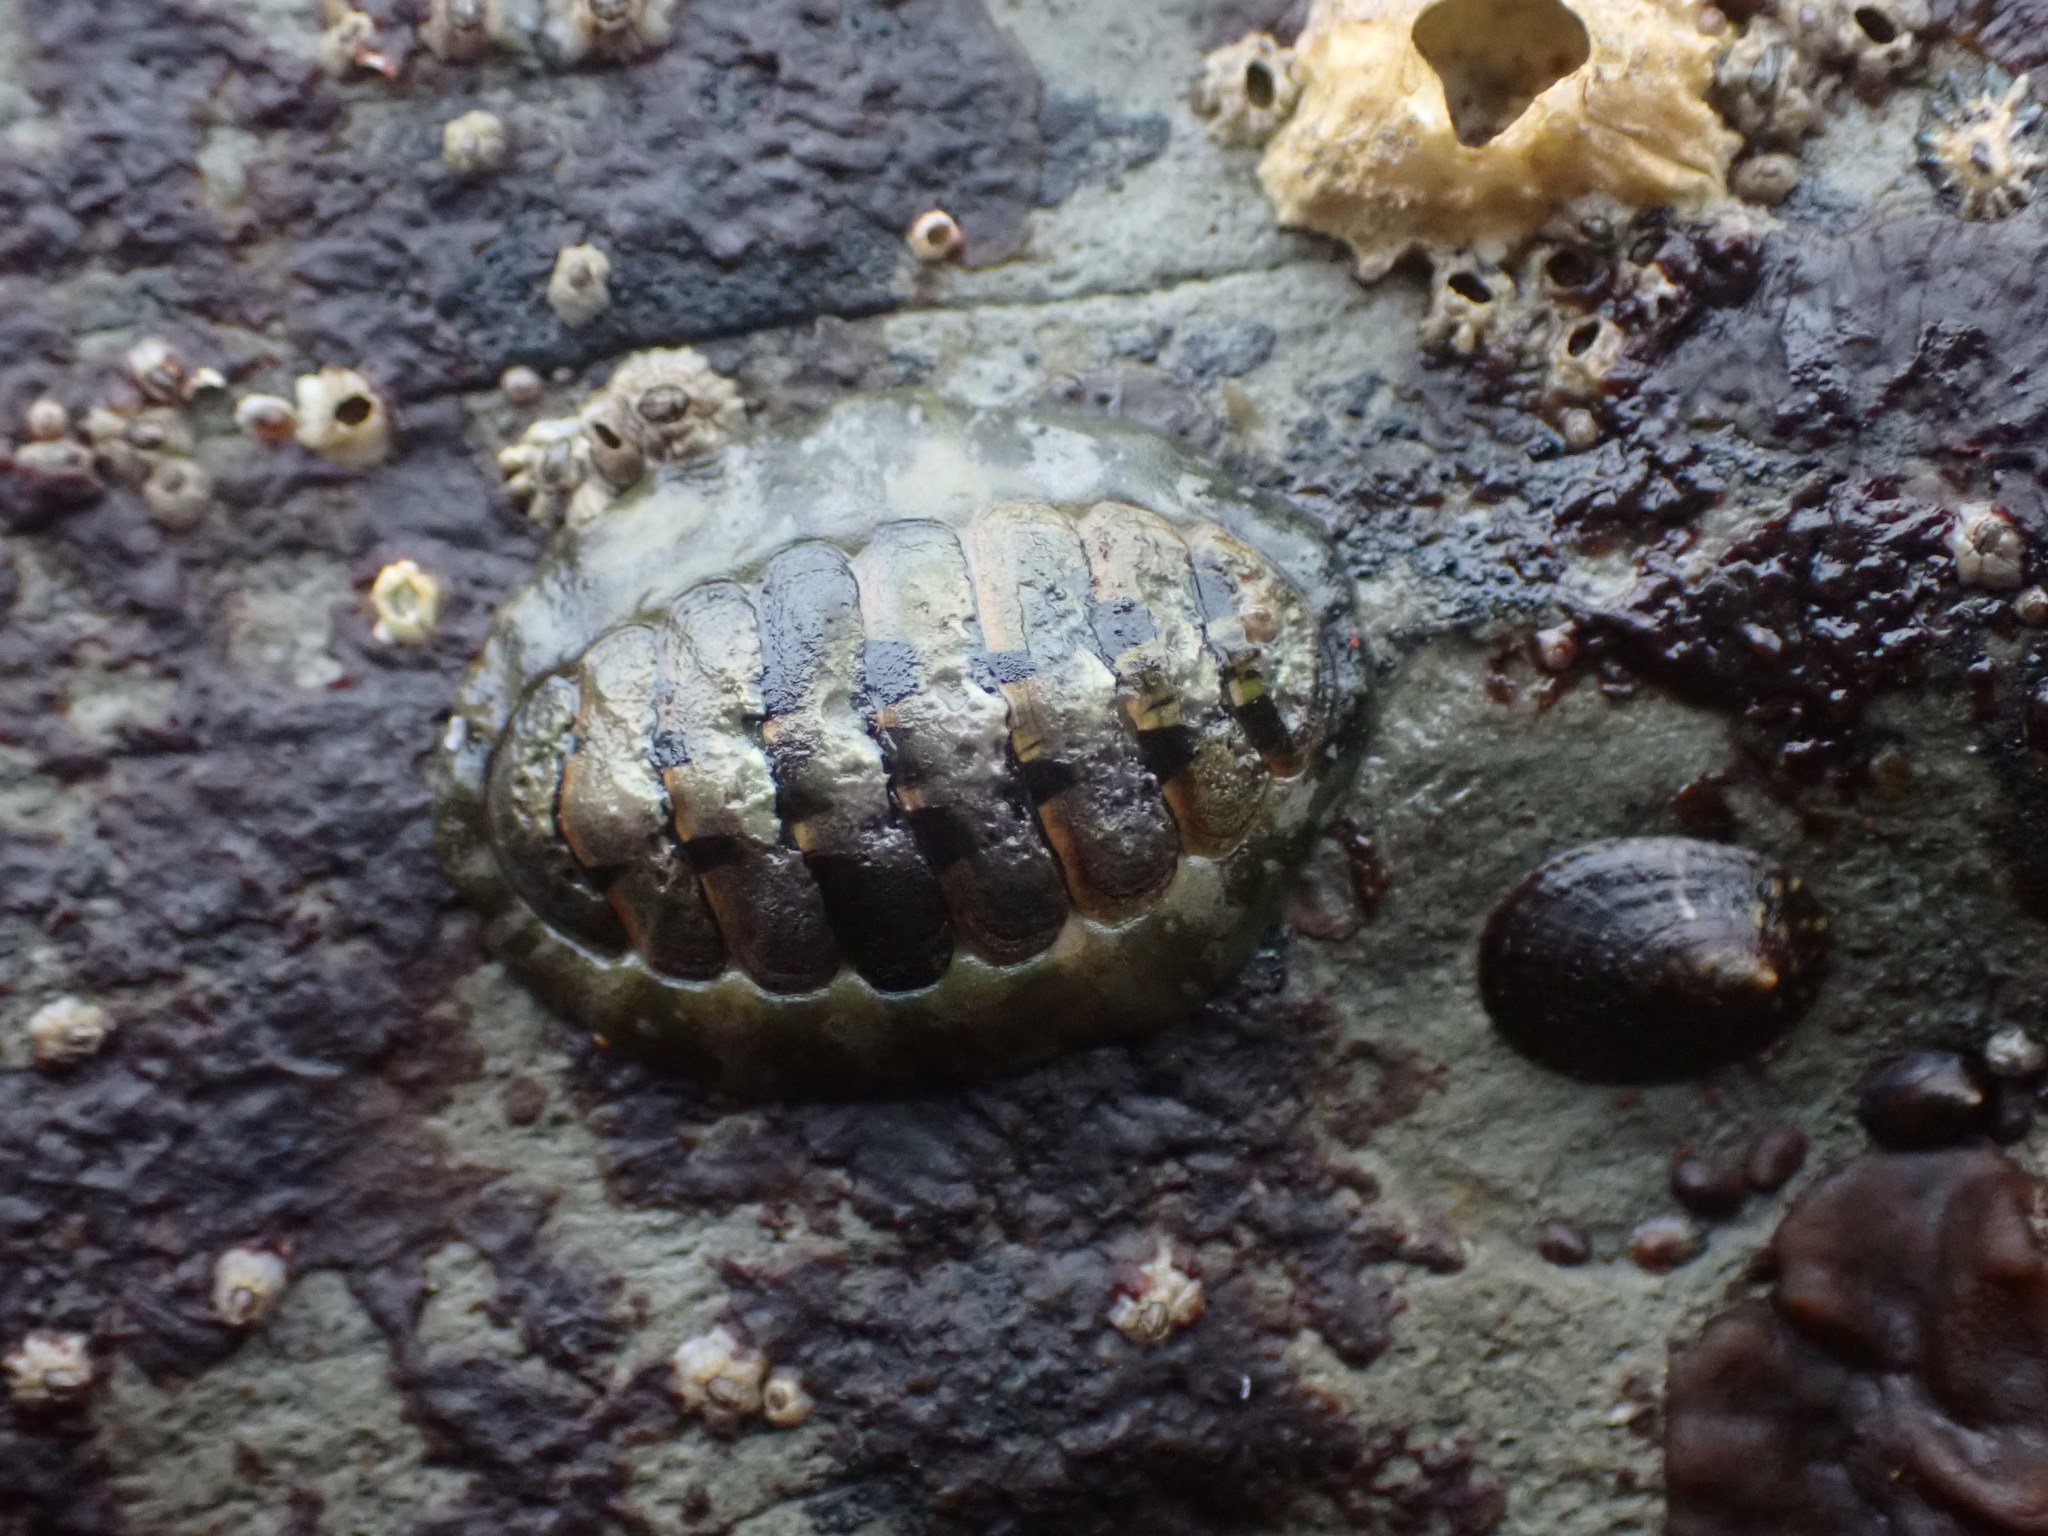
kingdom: Animalia
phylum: Mollusca
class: Polyplacophora
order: Chitonida
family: Tonicellidae
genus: Cyanoplax
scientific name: Cyanoplax hartwegii
